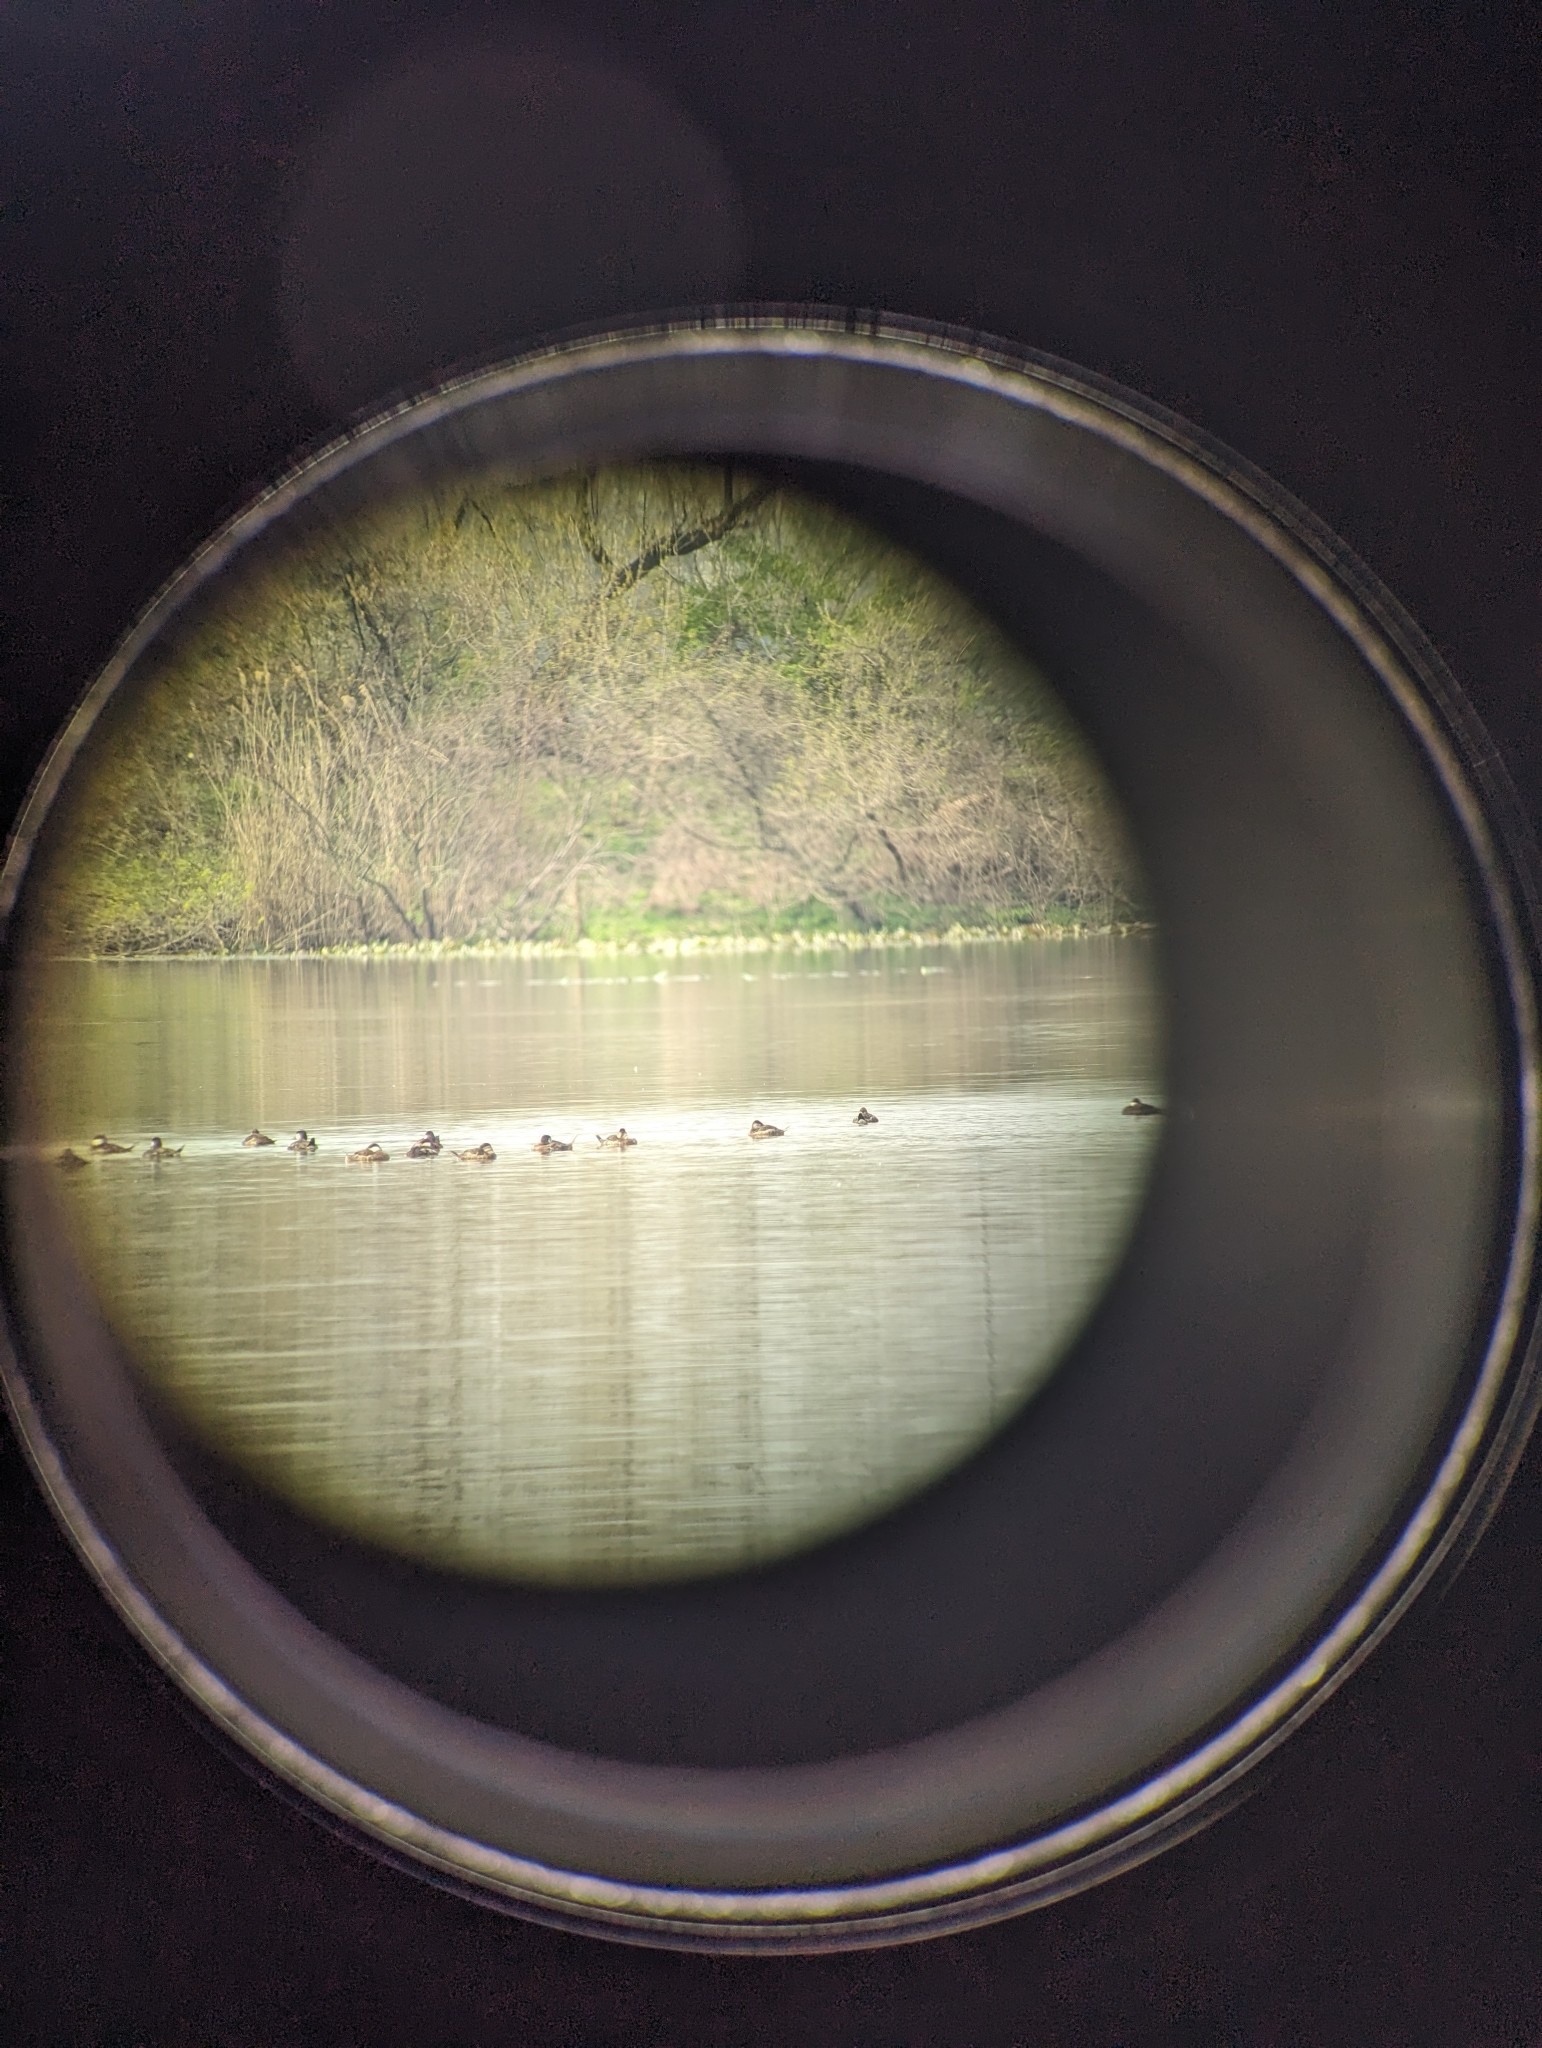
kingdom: Animalia
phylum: Chordata
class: Aves
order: Anseriformes
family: Anatidae
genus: Oxyura
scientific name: Oxyura jamaicensis
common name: Ruddy duck
